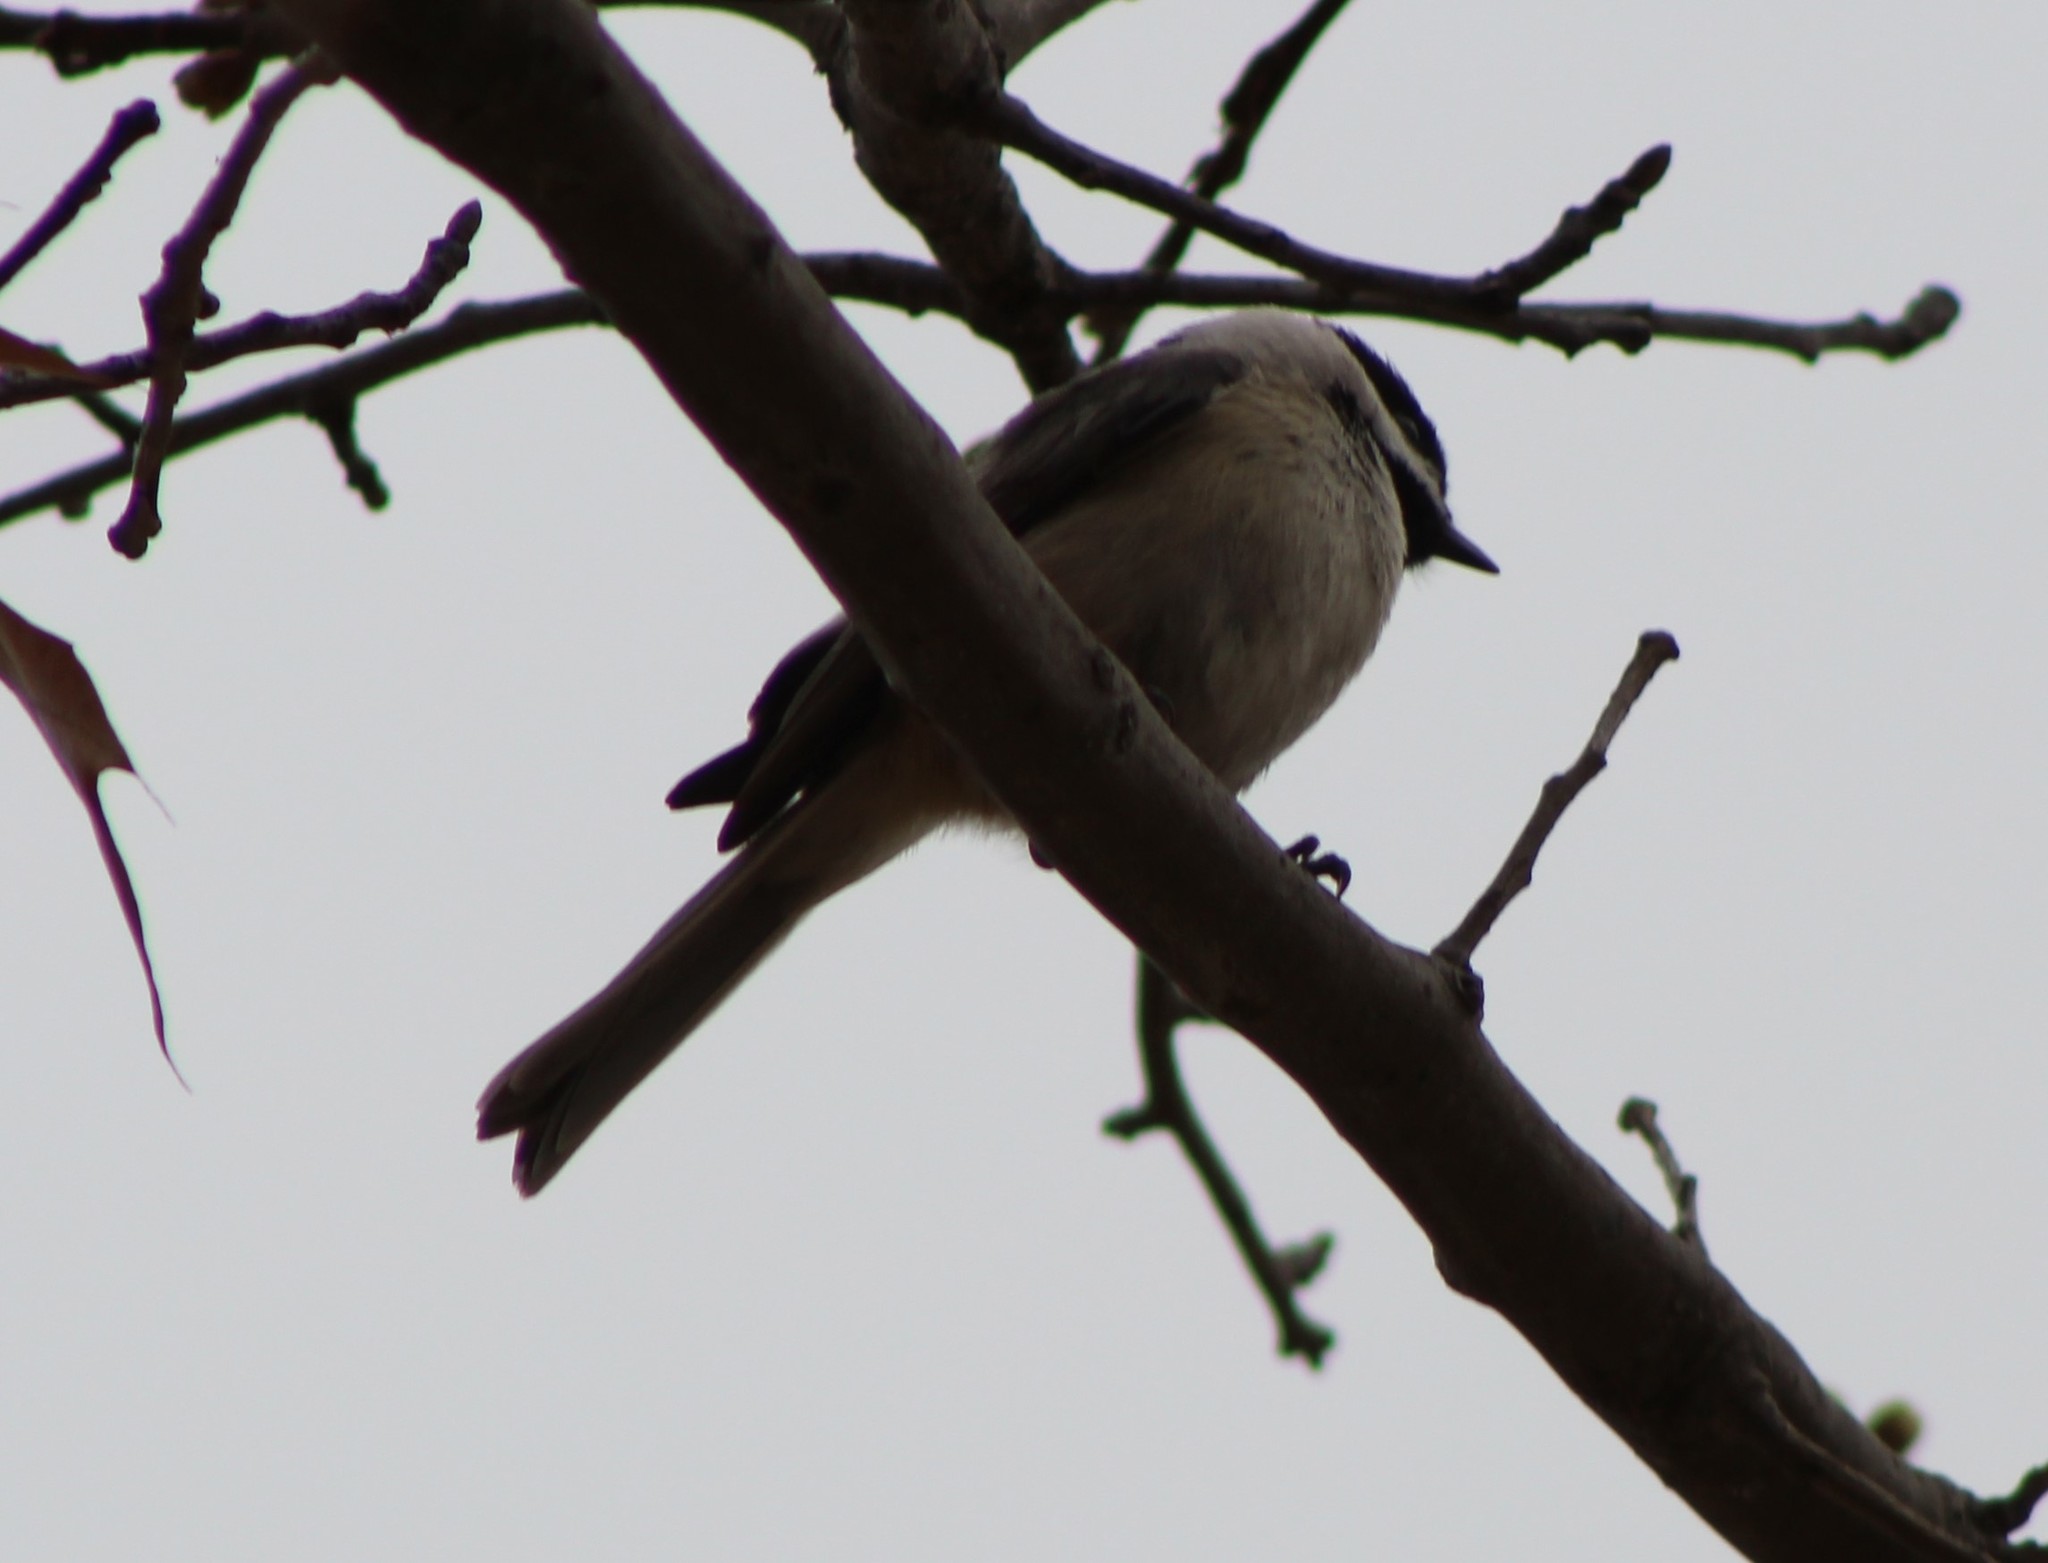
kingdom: Animalia
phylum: Chordata
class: Aves
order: Passeriformes
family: Paridae
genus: Poecile
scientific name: Poecile carolinensis
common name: Carolina chickadee
